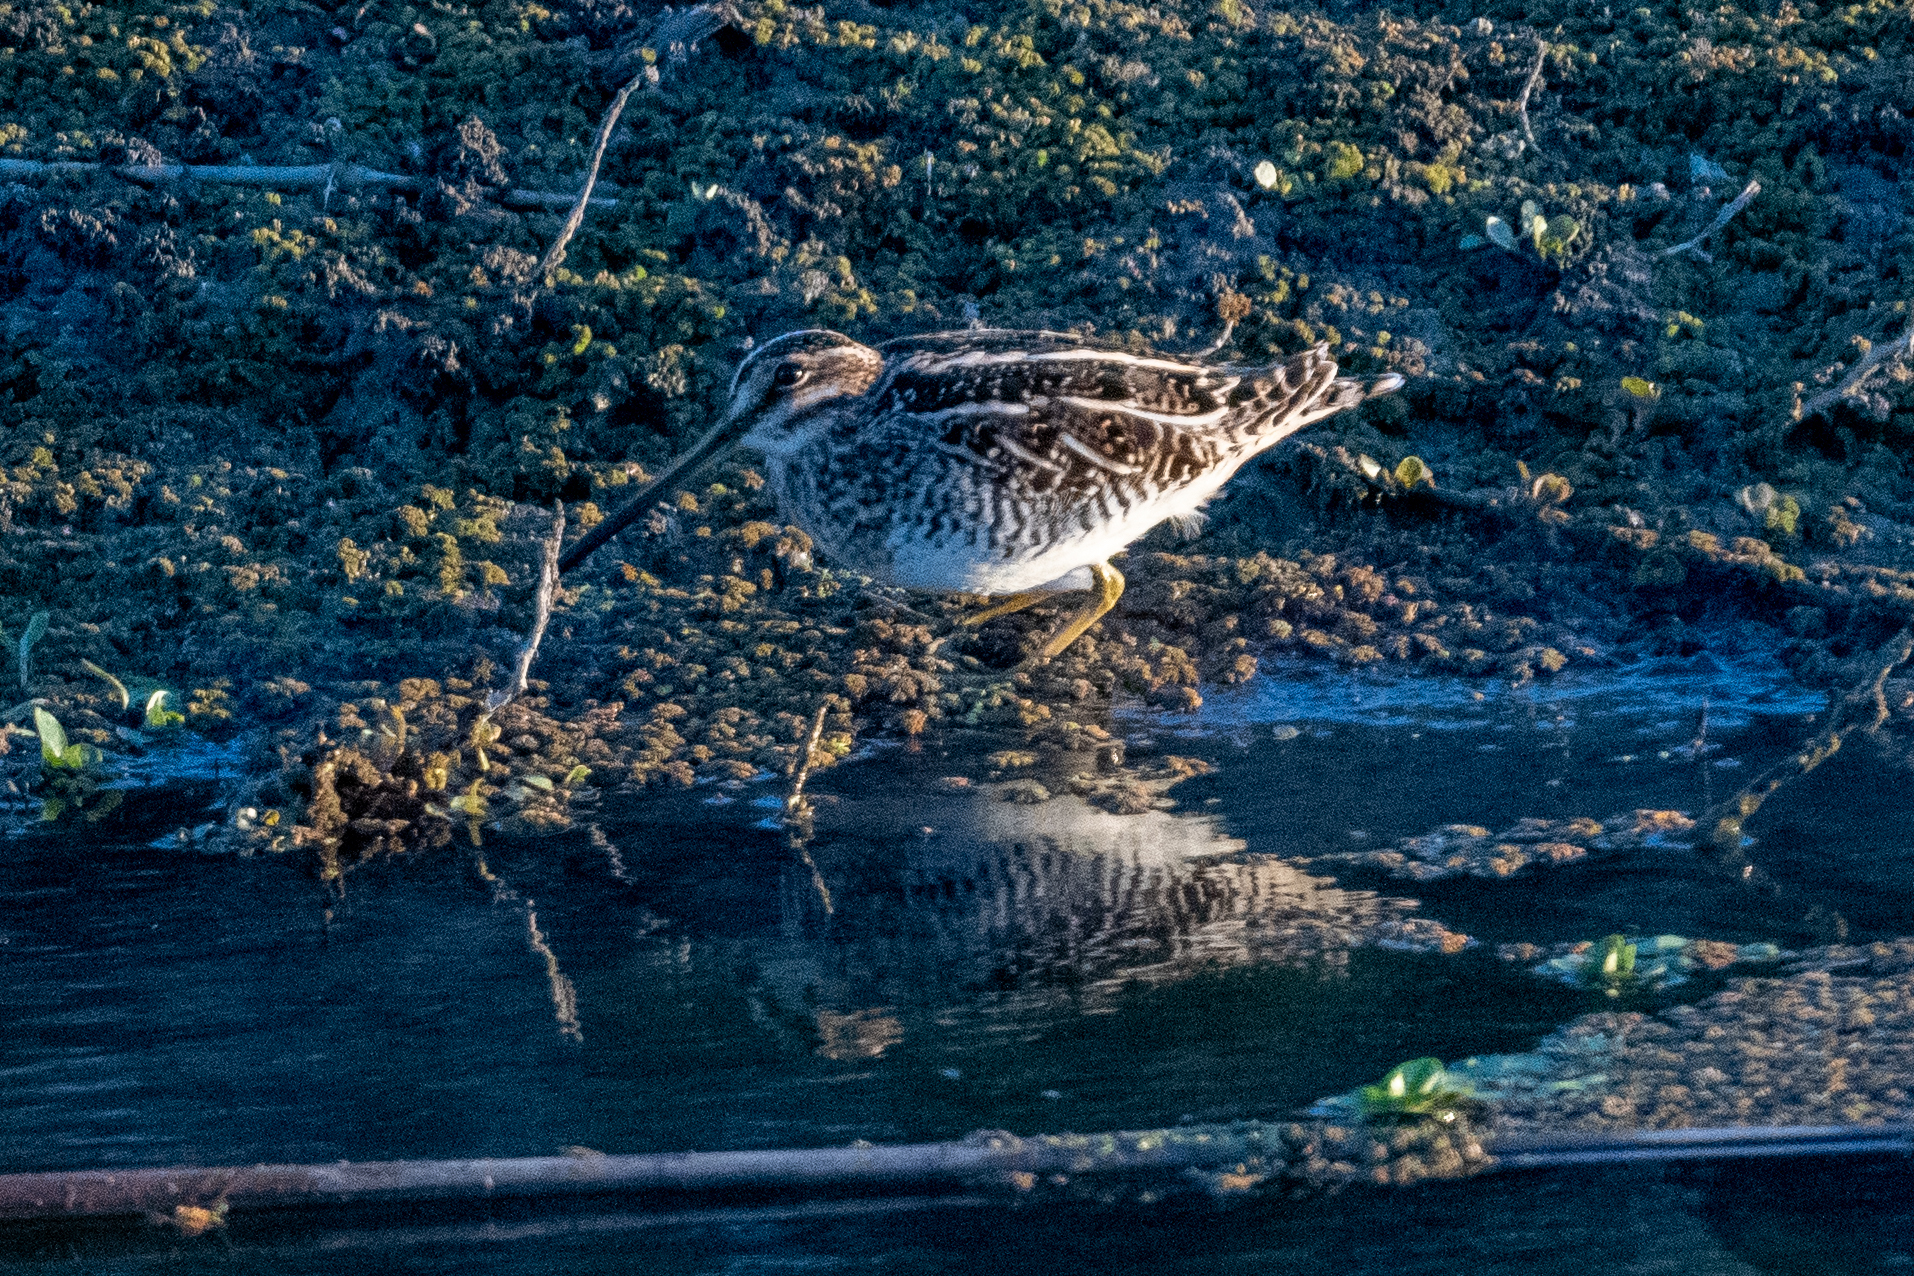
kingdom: Animalia
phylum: Chordata
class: Aves
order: Charadriiformes
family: Scolopacidae
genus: Gallinago
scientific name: Gallinago delicata
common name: Wilson's snipe
